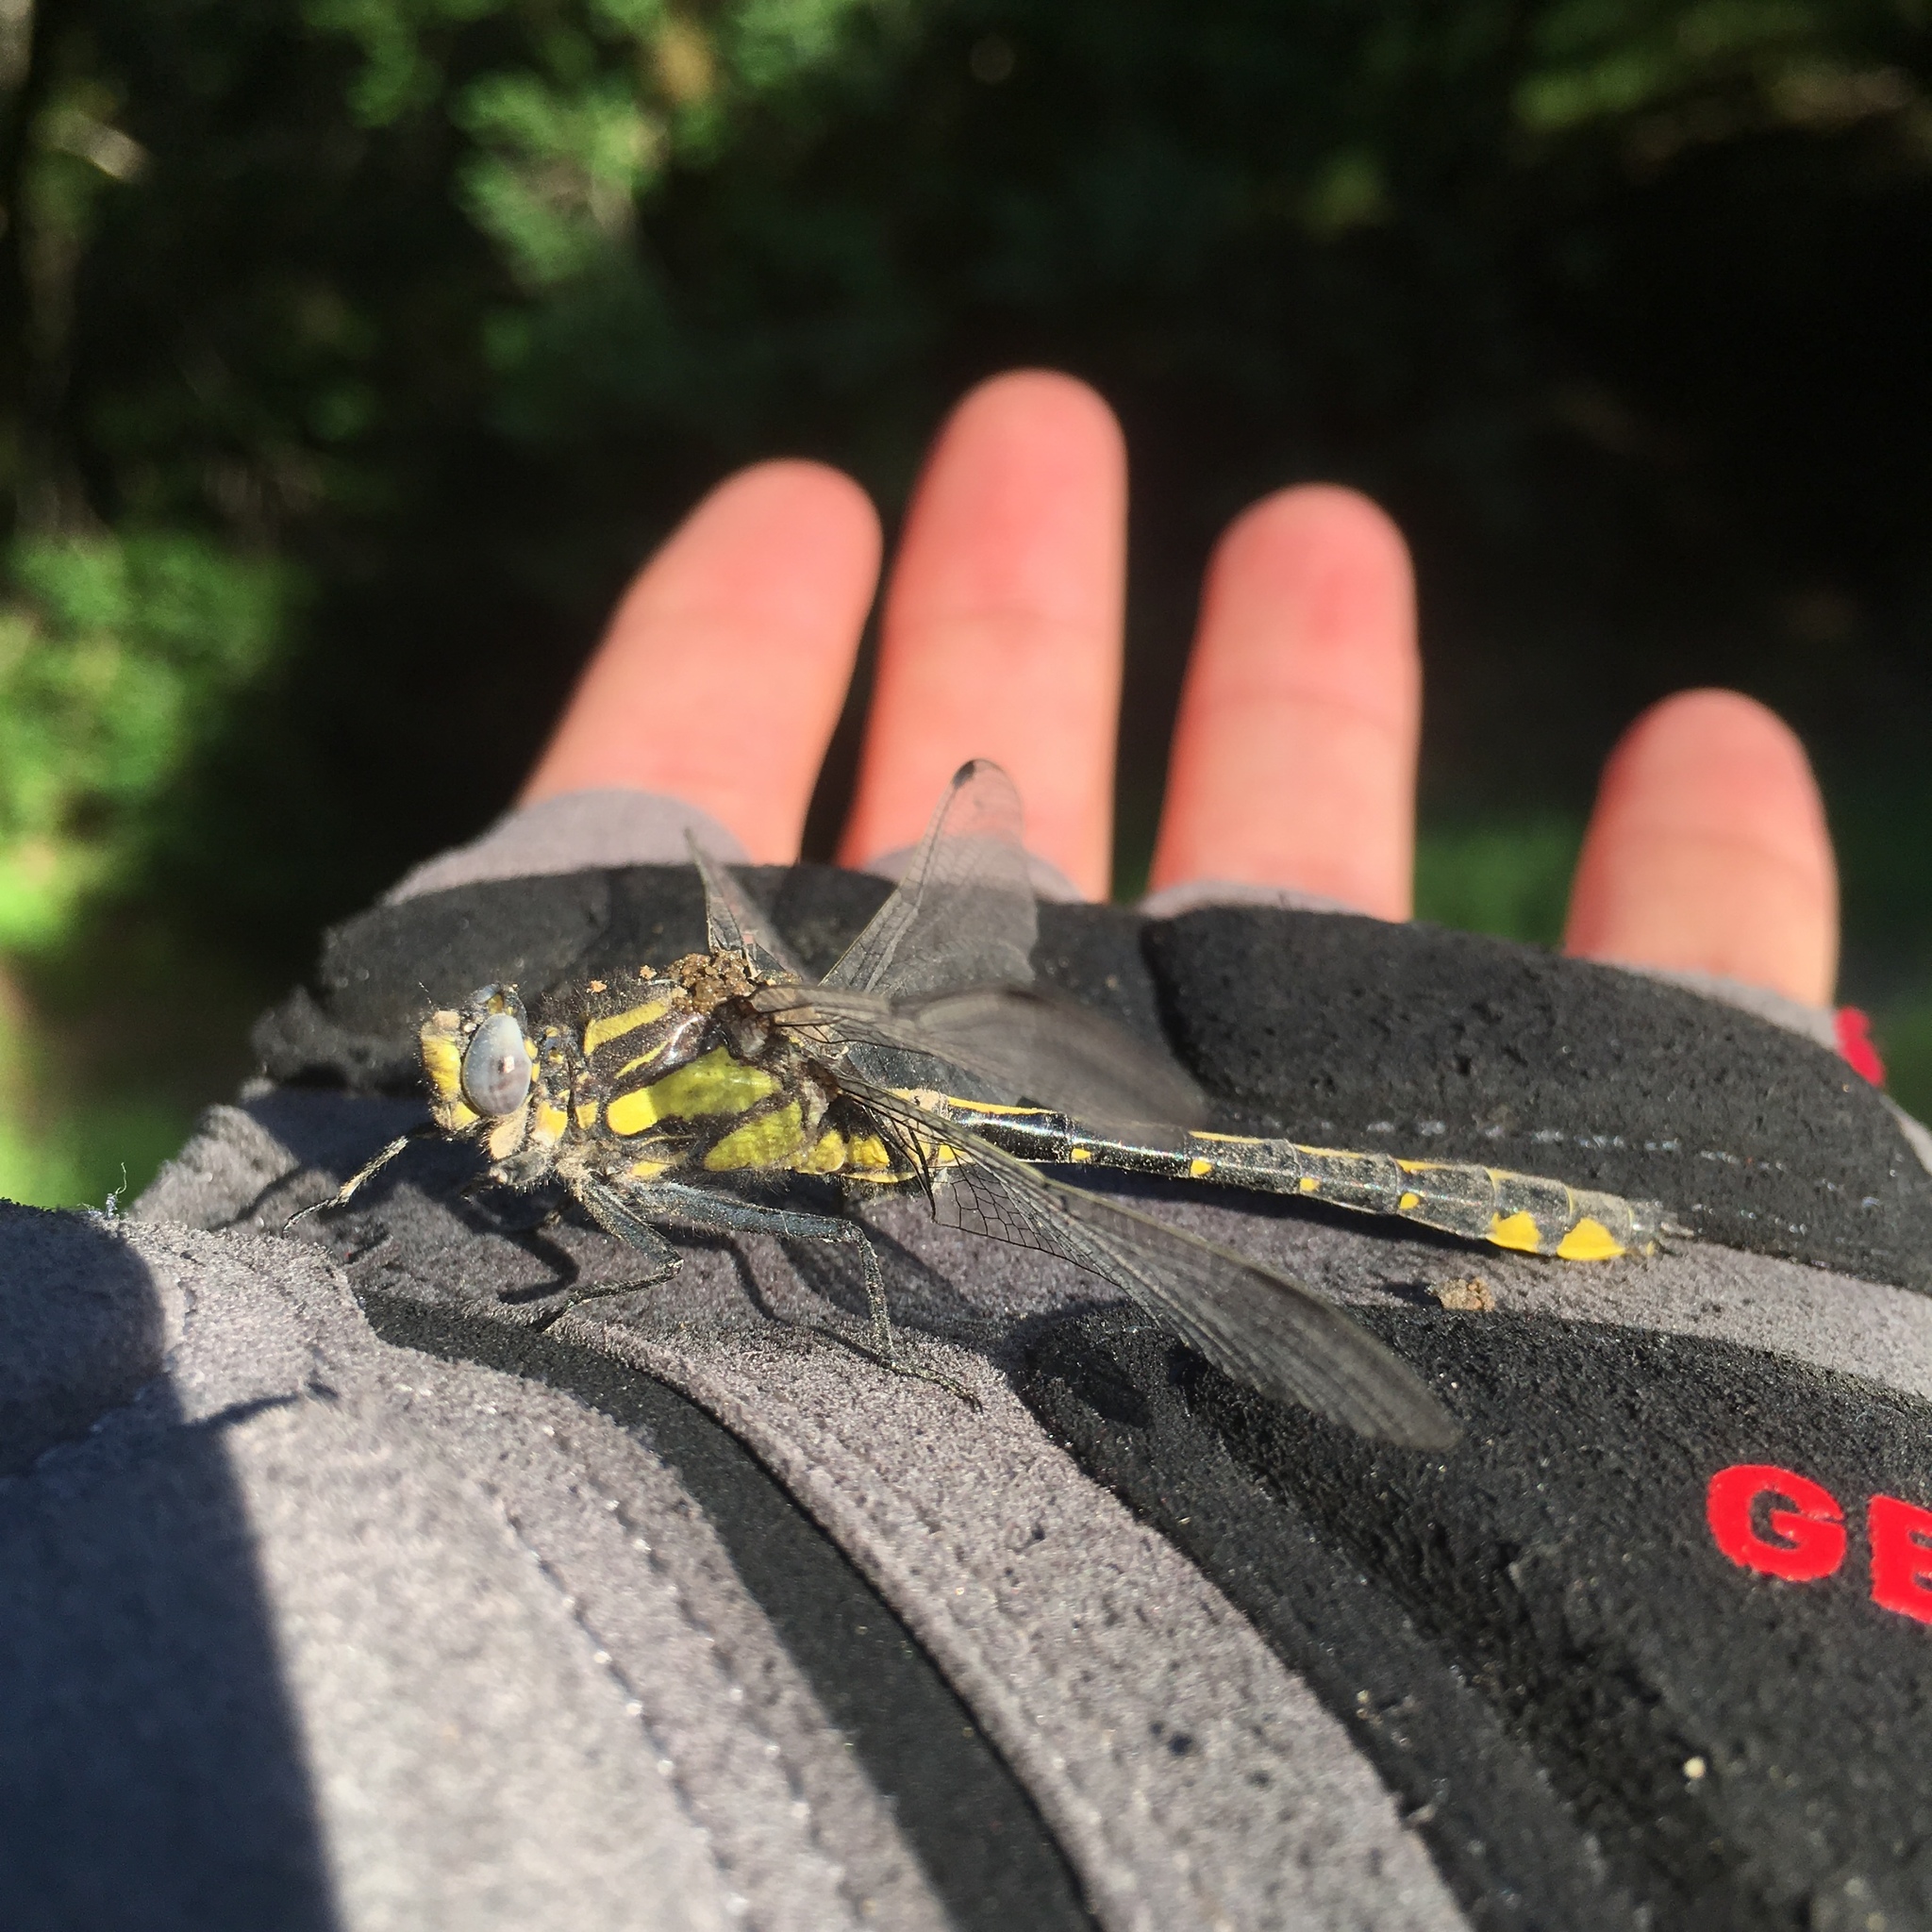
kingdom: Animalia
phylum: Arthropoda
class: Insecta
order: Odonata
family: Gomphidae
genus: Phanogomphus
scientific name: Phanogomphus kurilis
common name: Pacific clubtail
